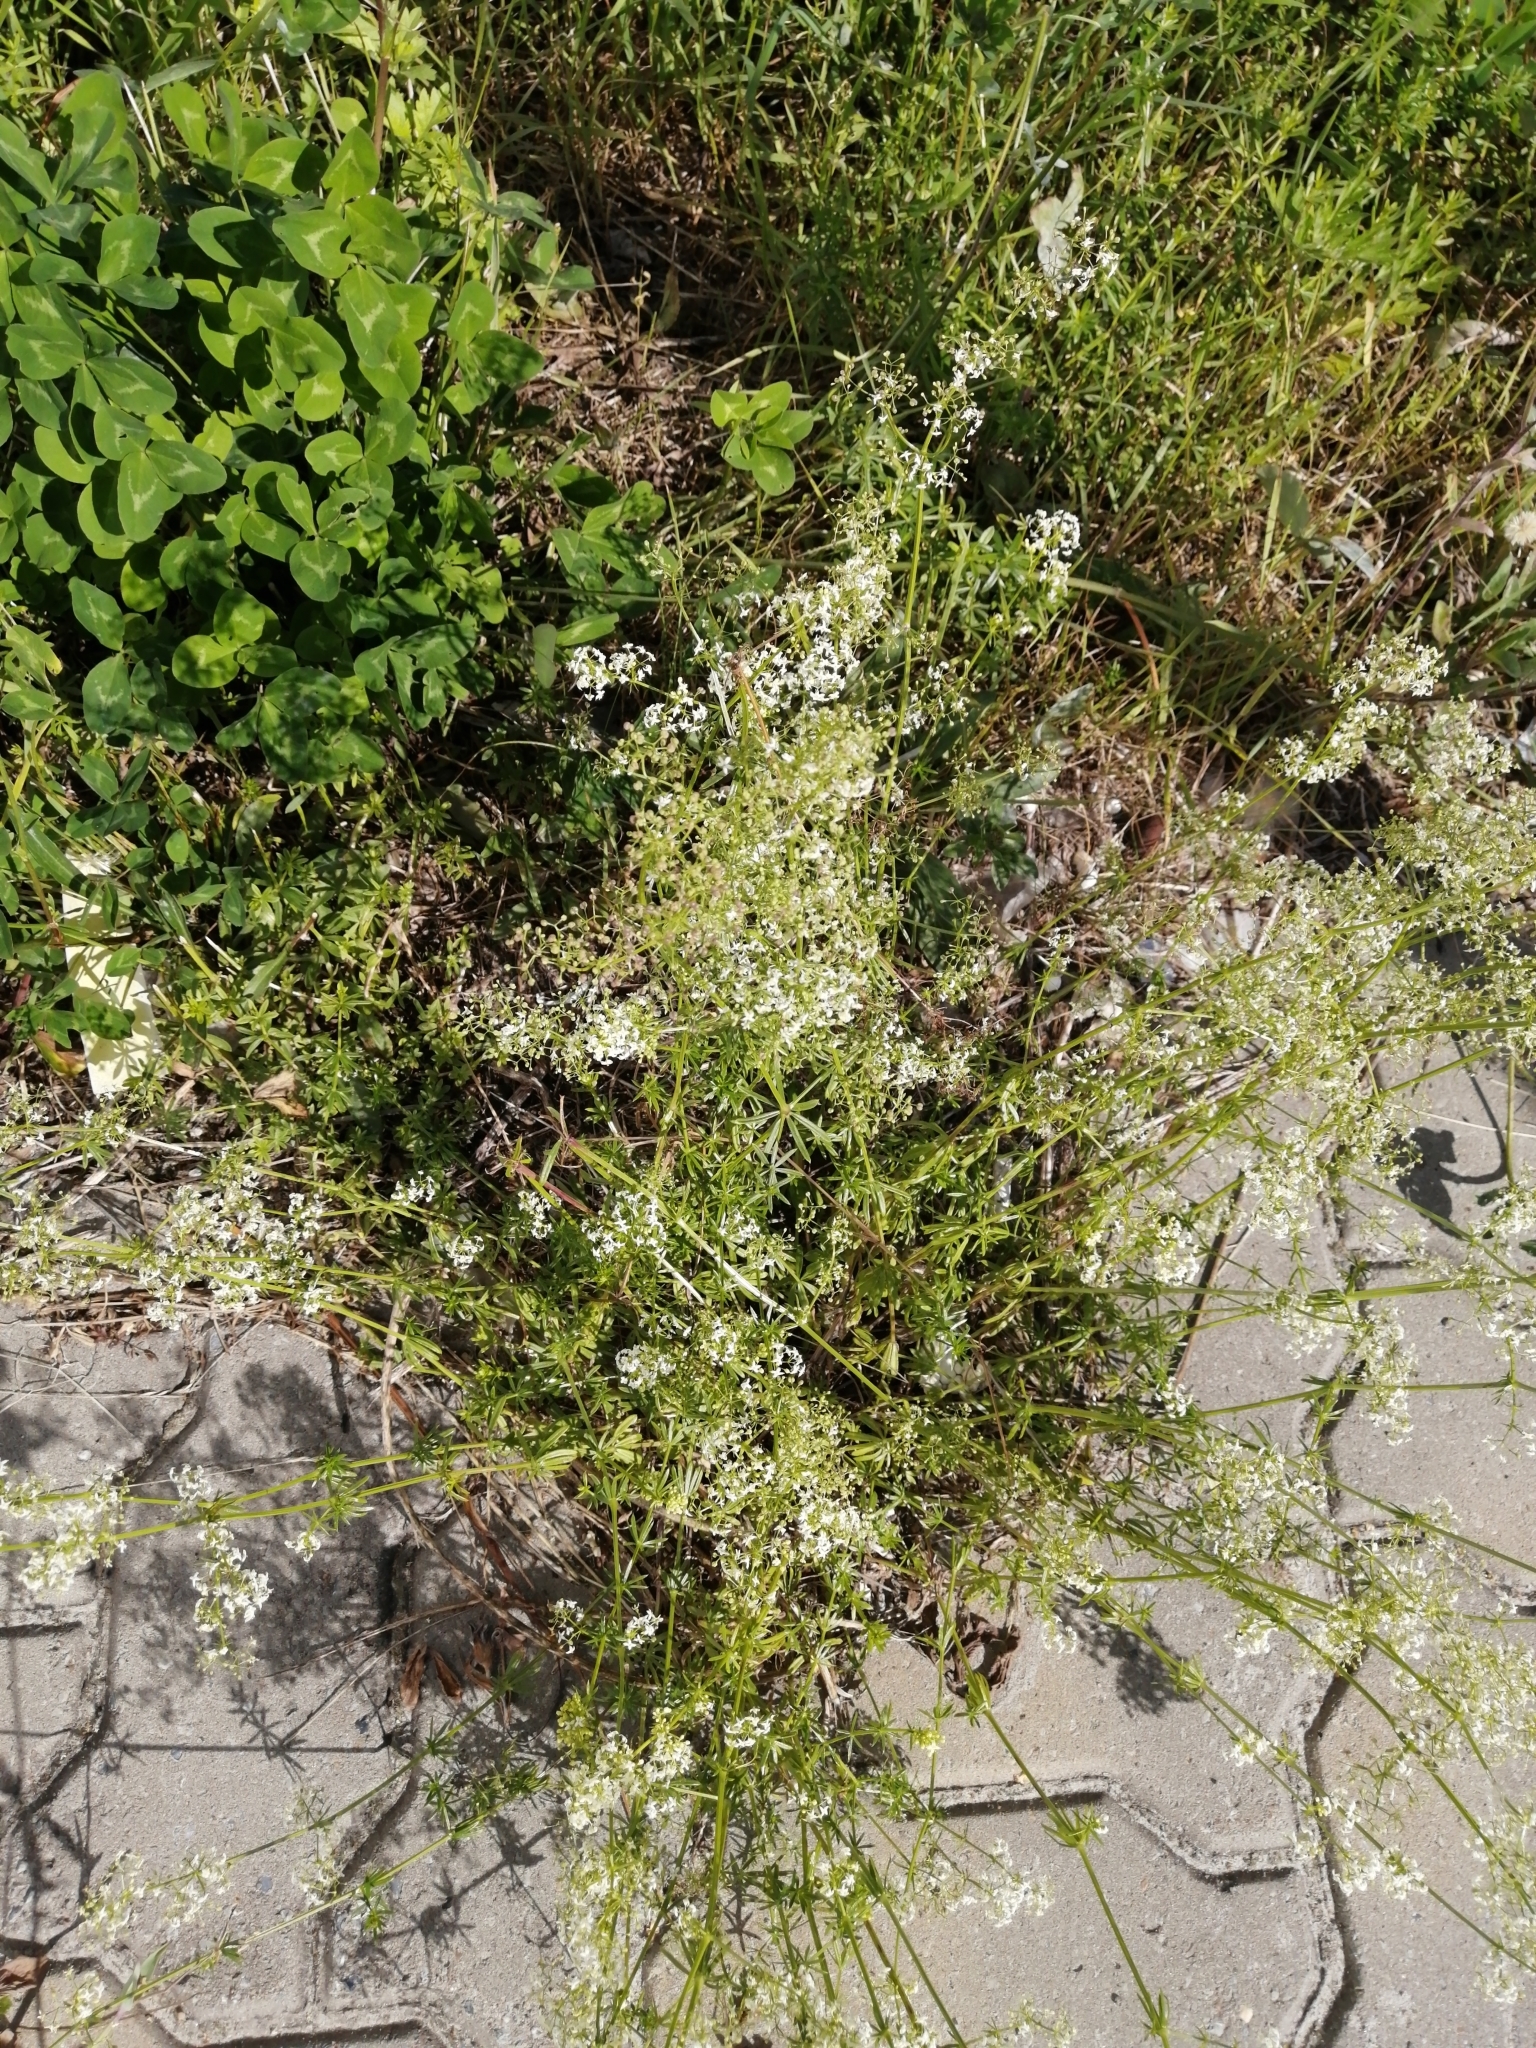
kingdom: Plantae
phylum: Tracheophyta
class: Magnoliopsida
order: Gentianales
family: Rubiaceae
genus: Galium
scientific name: Galium mollugo
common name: Hedge bedstraw
